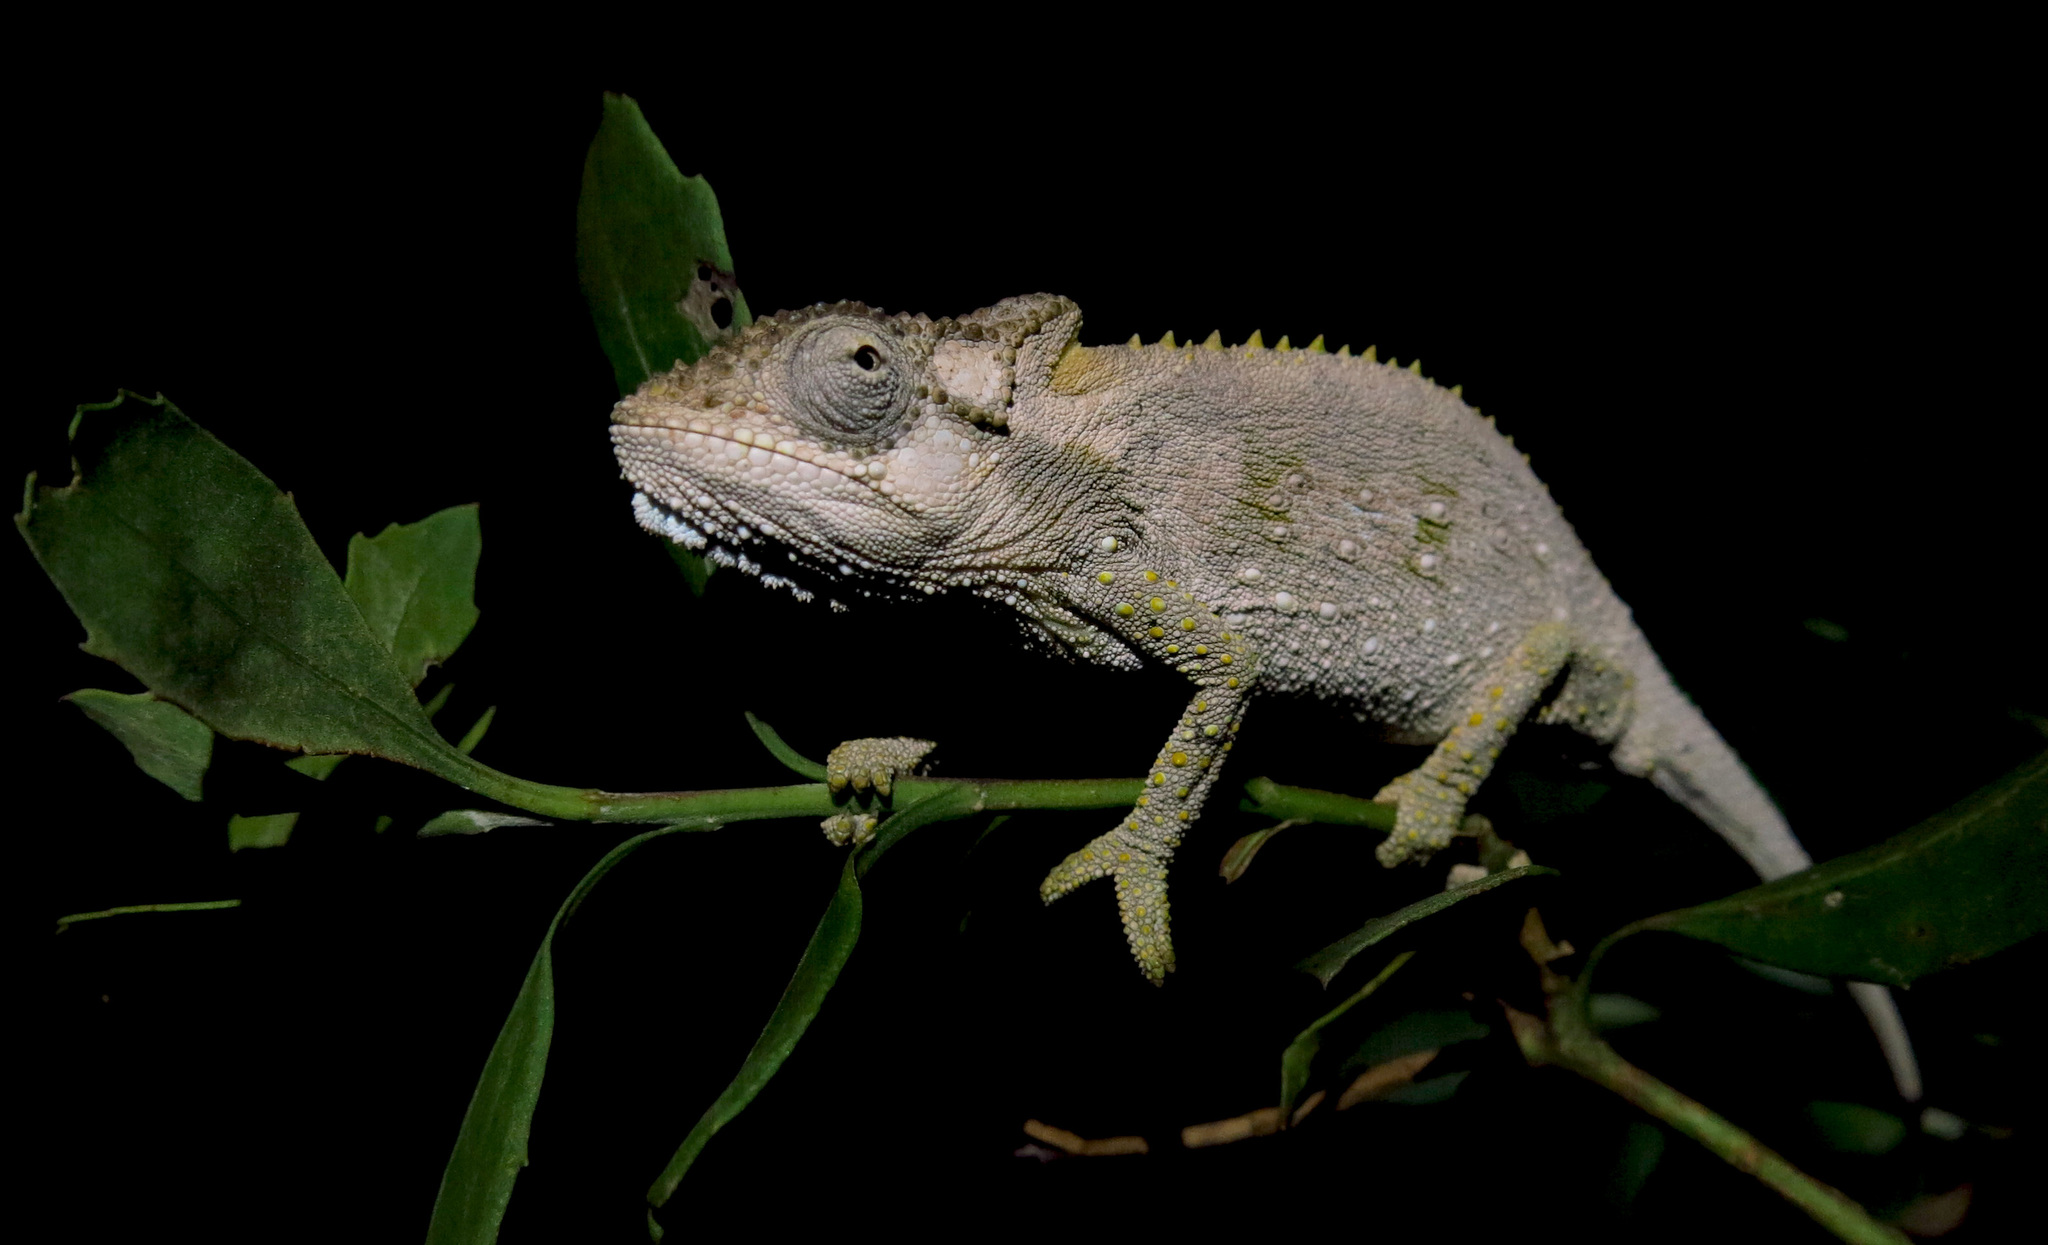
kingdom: Animalia
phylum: Chordata
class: Squamata
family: Chamaeleonidae
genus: Bradypodion
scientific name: Bradypodion ventrale
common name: Eastern cape dwarf chameleon
